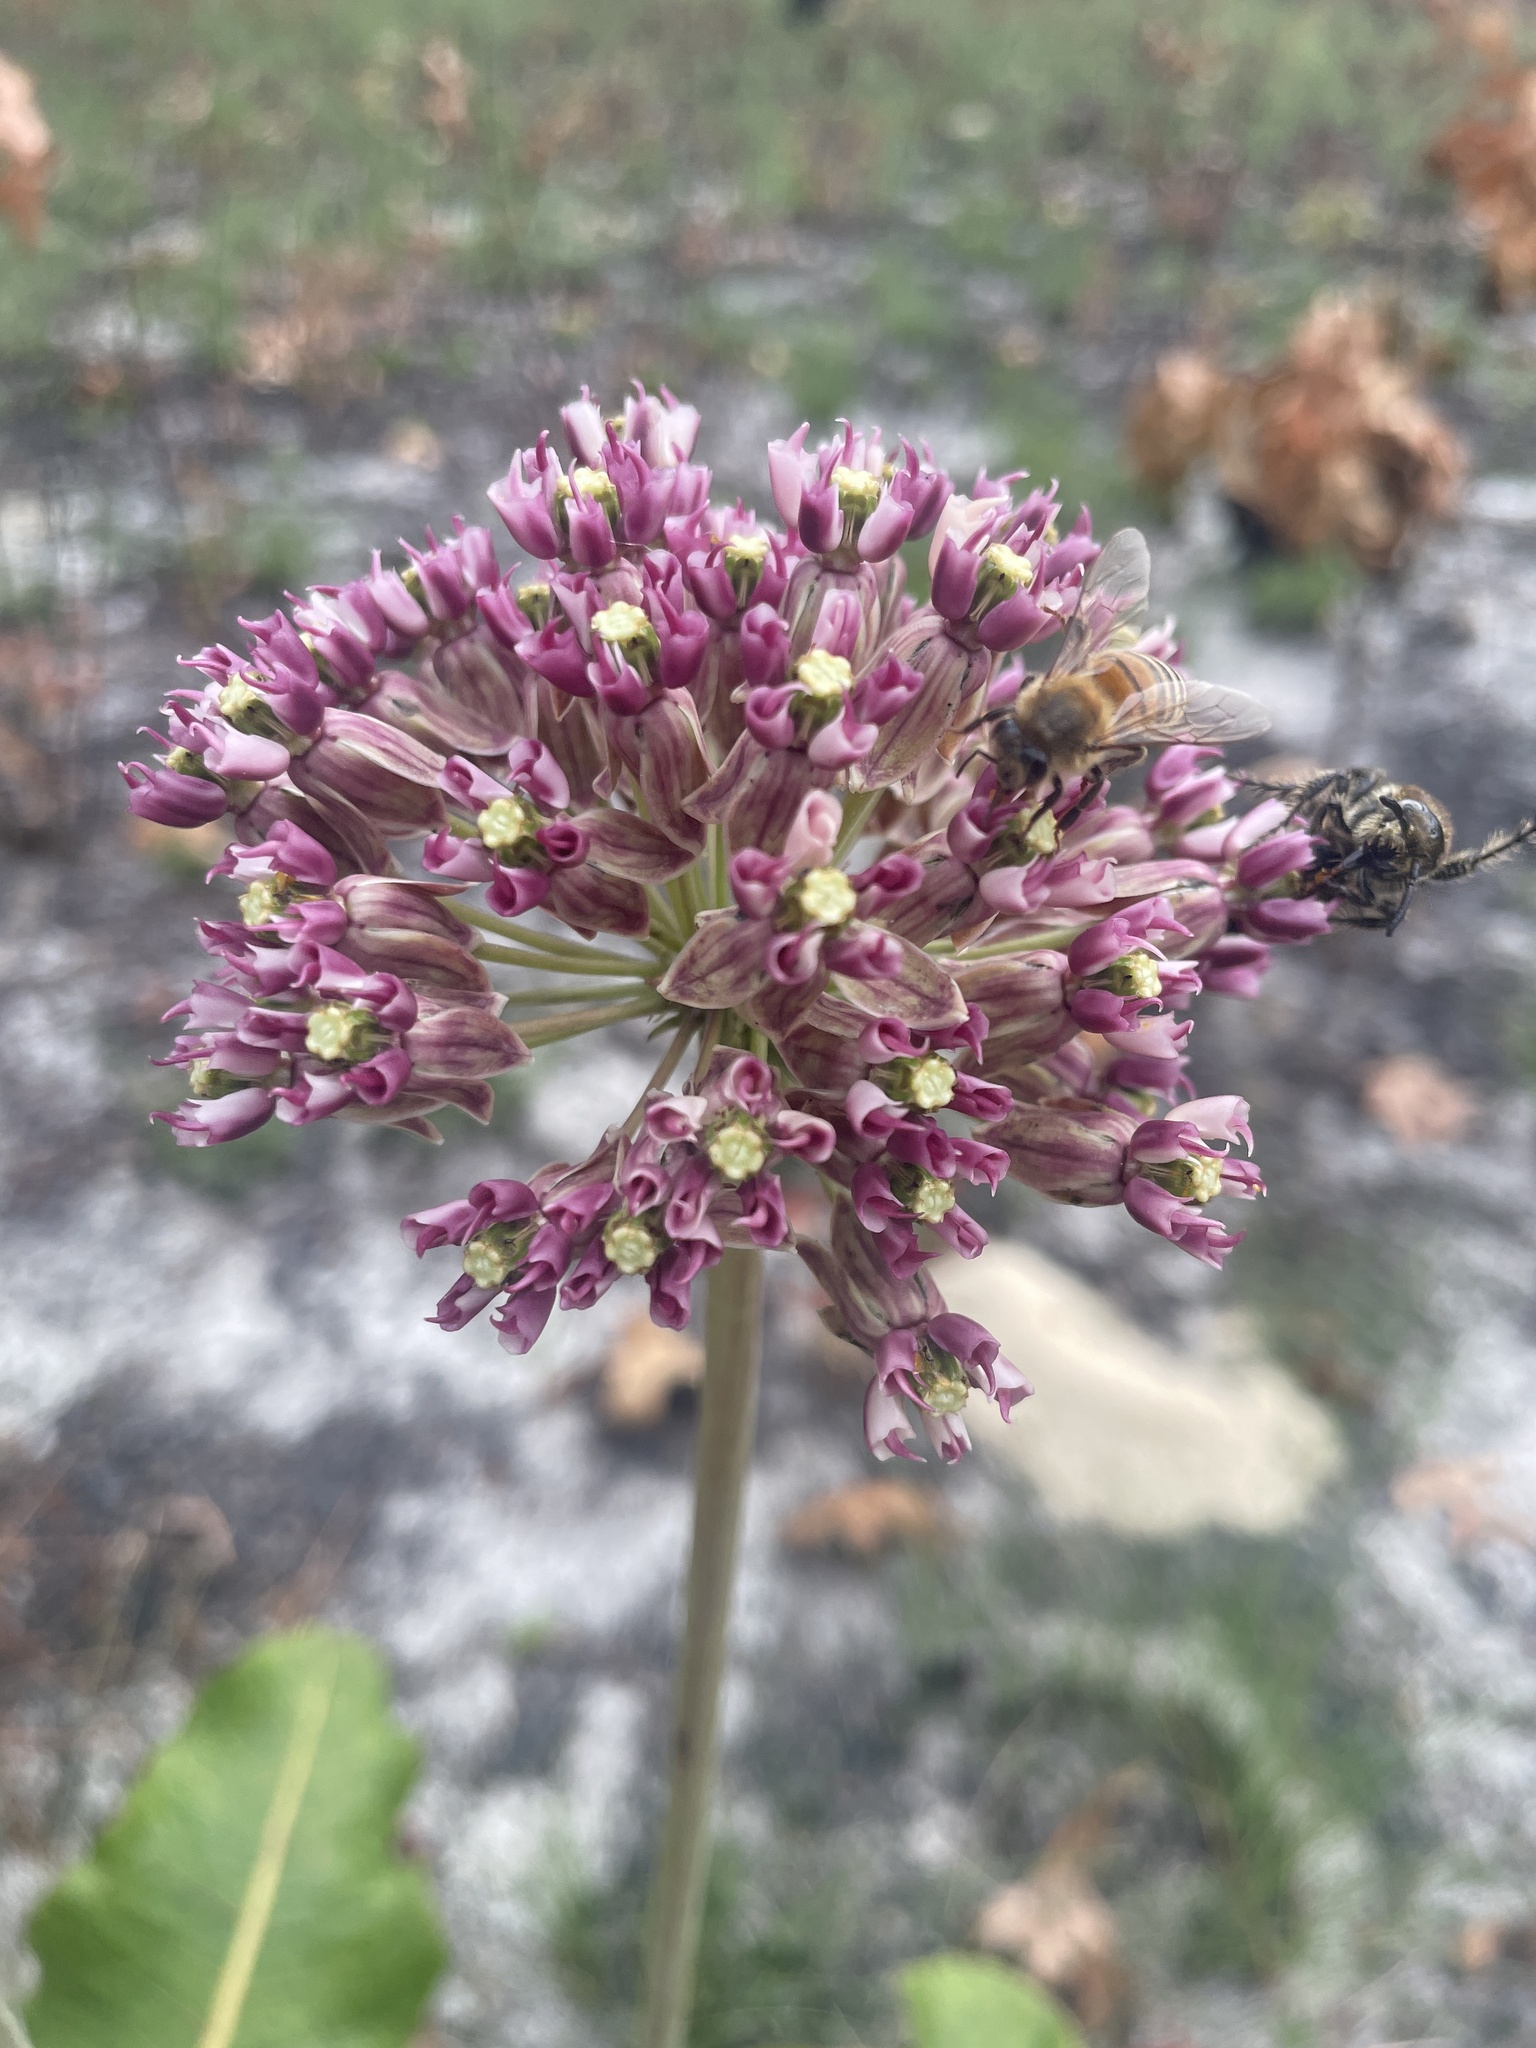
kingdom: Plantae
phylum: Tracheophyta
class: Magnoliopsida
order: Gentianales
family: Apocynaceae
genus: Asclepias
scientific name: Asclepias amplexicaulis
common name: Blunt-leaf milkweed
